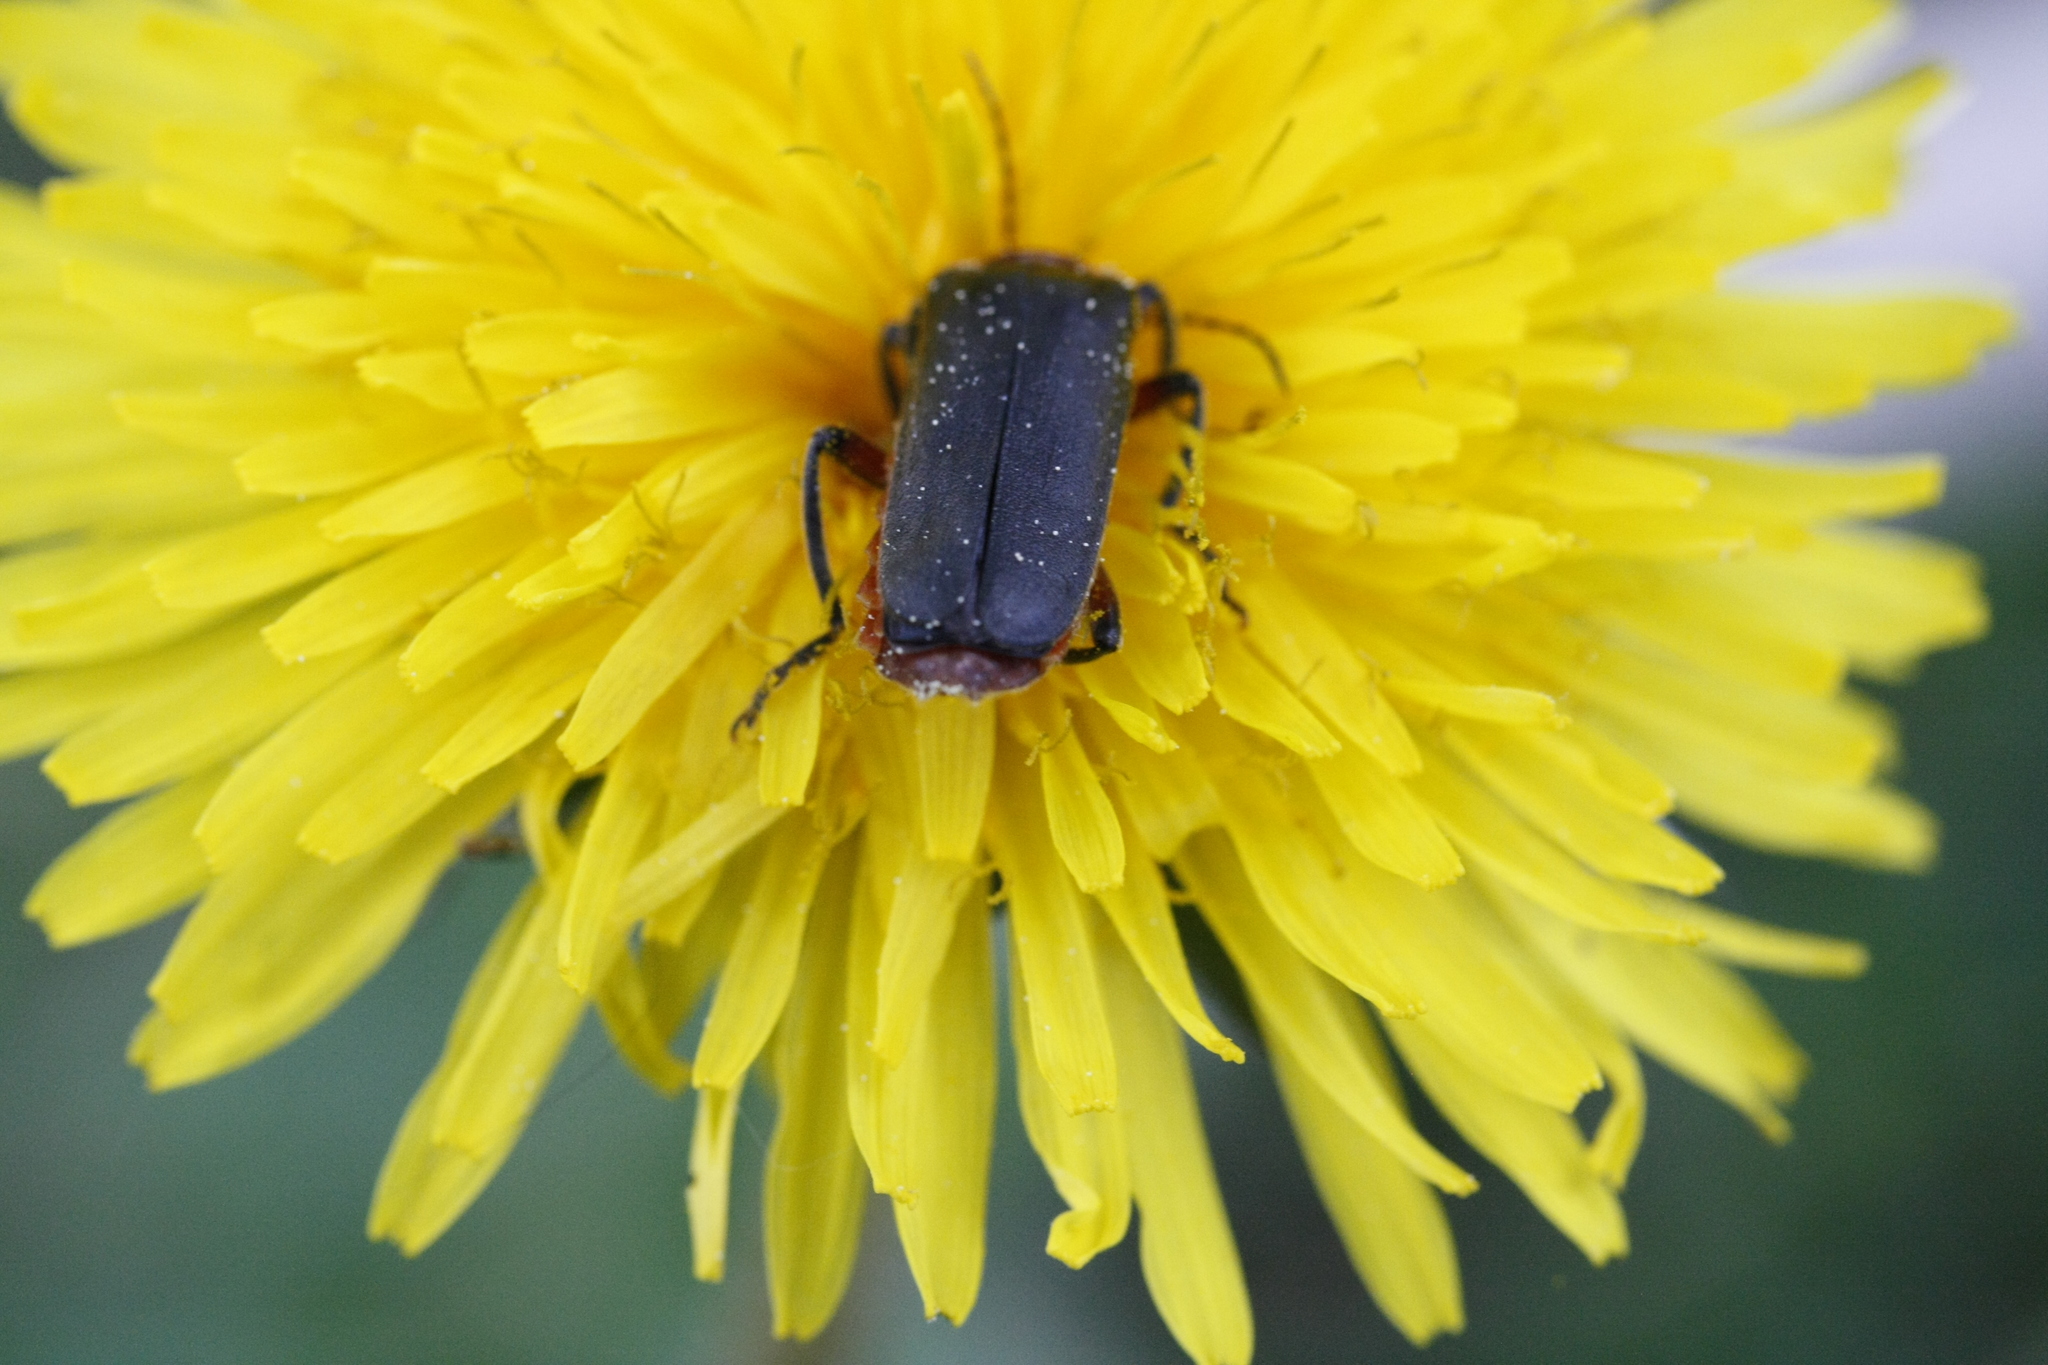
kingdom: Animalia
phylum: Arthropoda
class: Insecta
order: Coleoptera
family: Cantharidae
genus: Cantharis
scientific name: Cantharis rustica
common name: Soldier beetle
